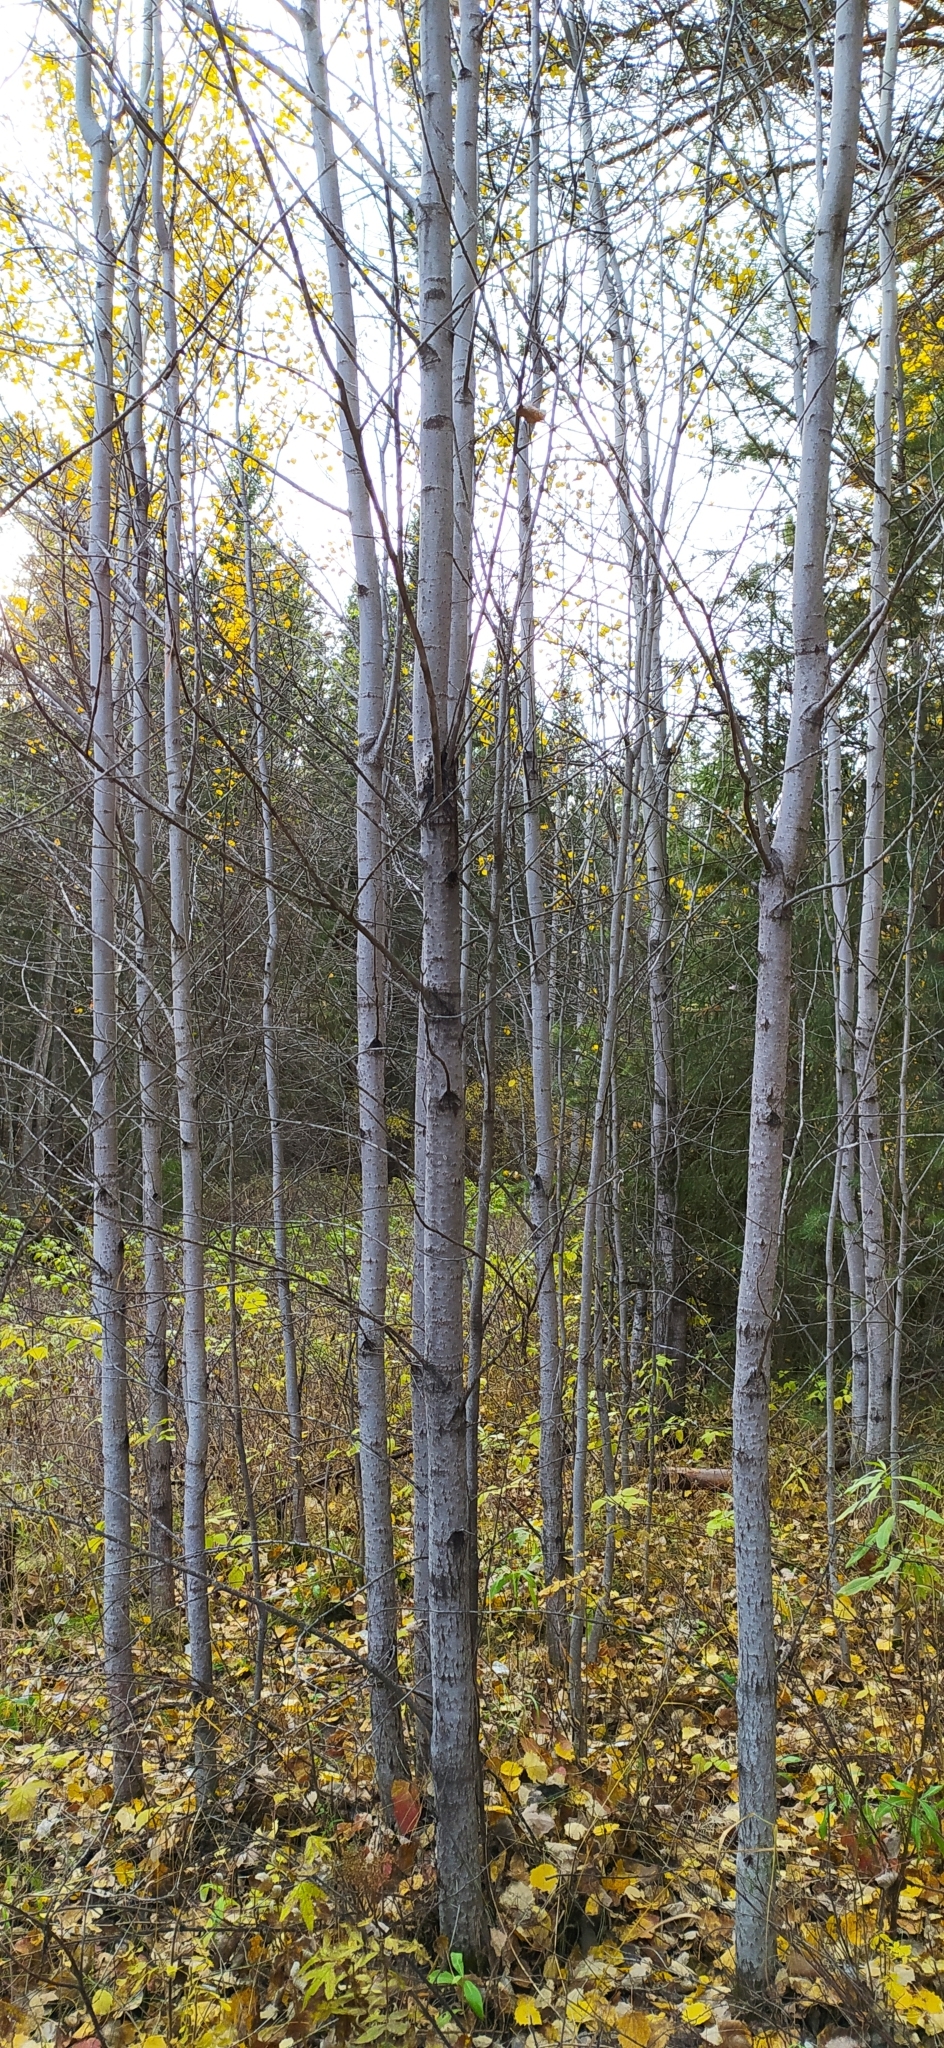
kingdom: Plantae
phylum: Tracheophyta
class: Magnoliopsida
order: Malpighiales
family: Salicaceae
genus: Populus
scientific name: Populus tremula
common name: European aspen
